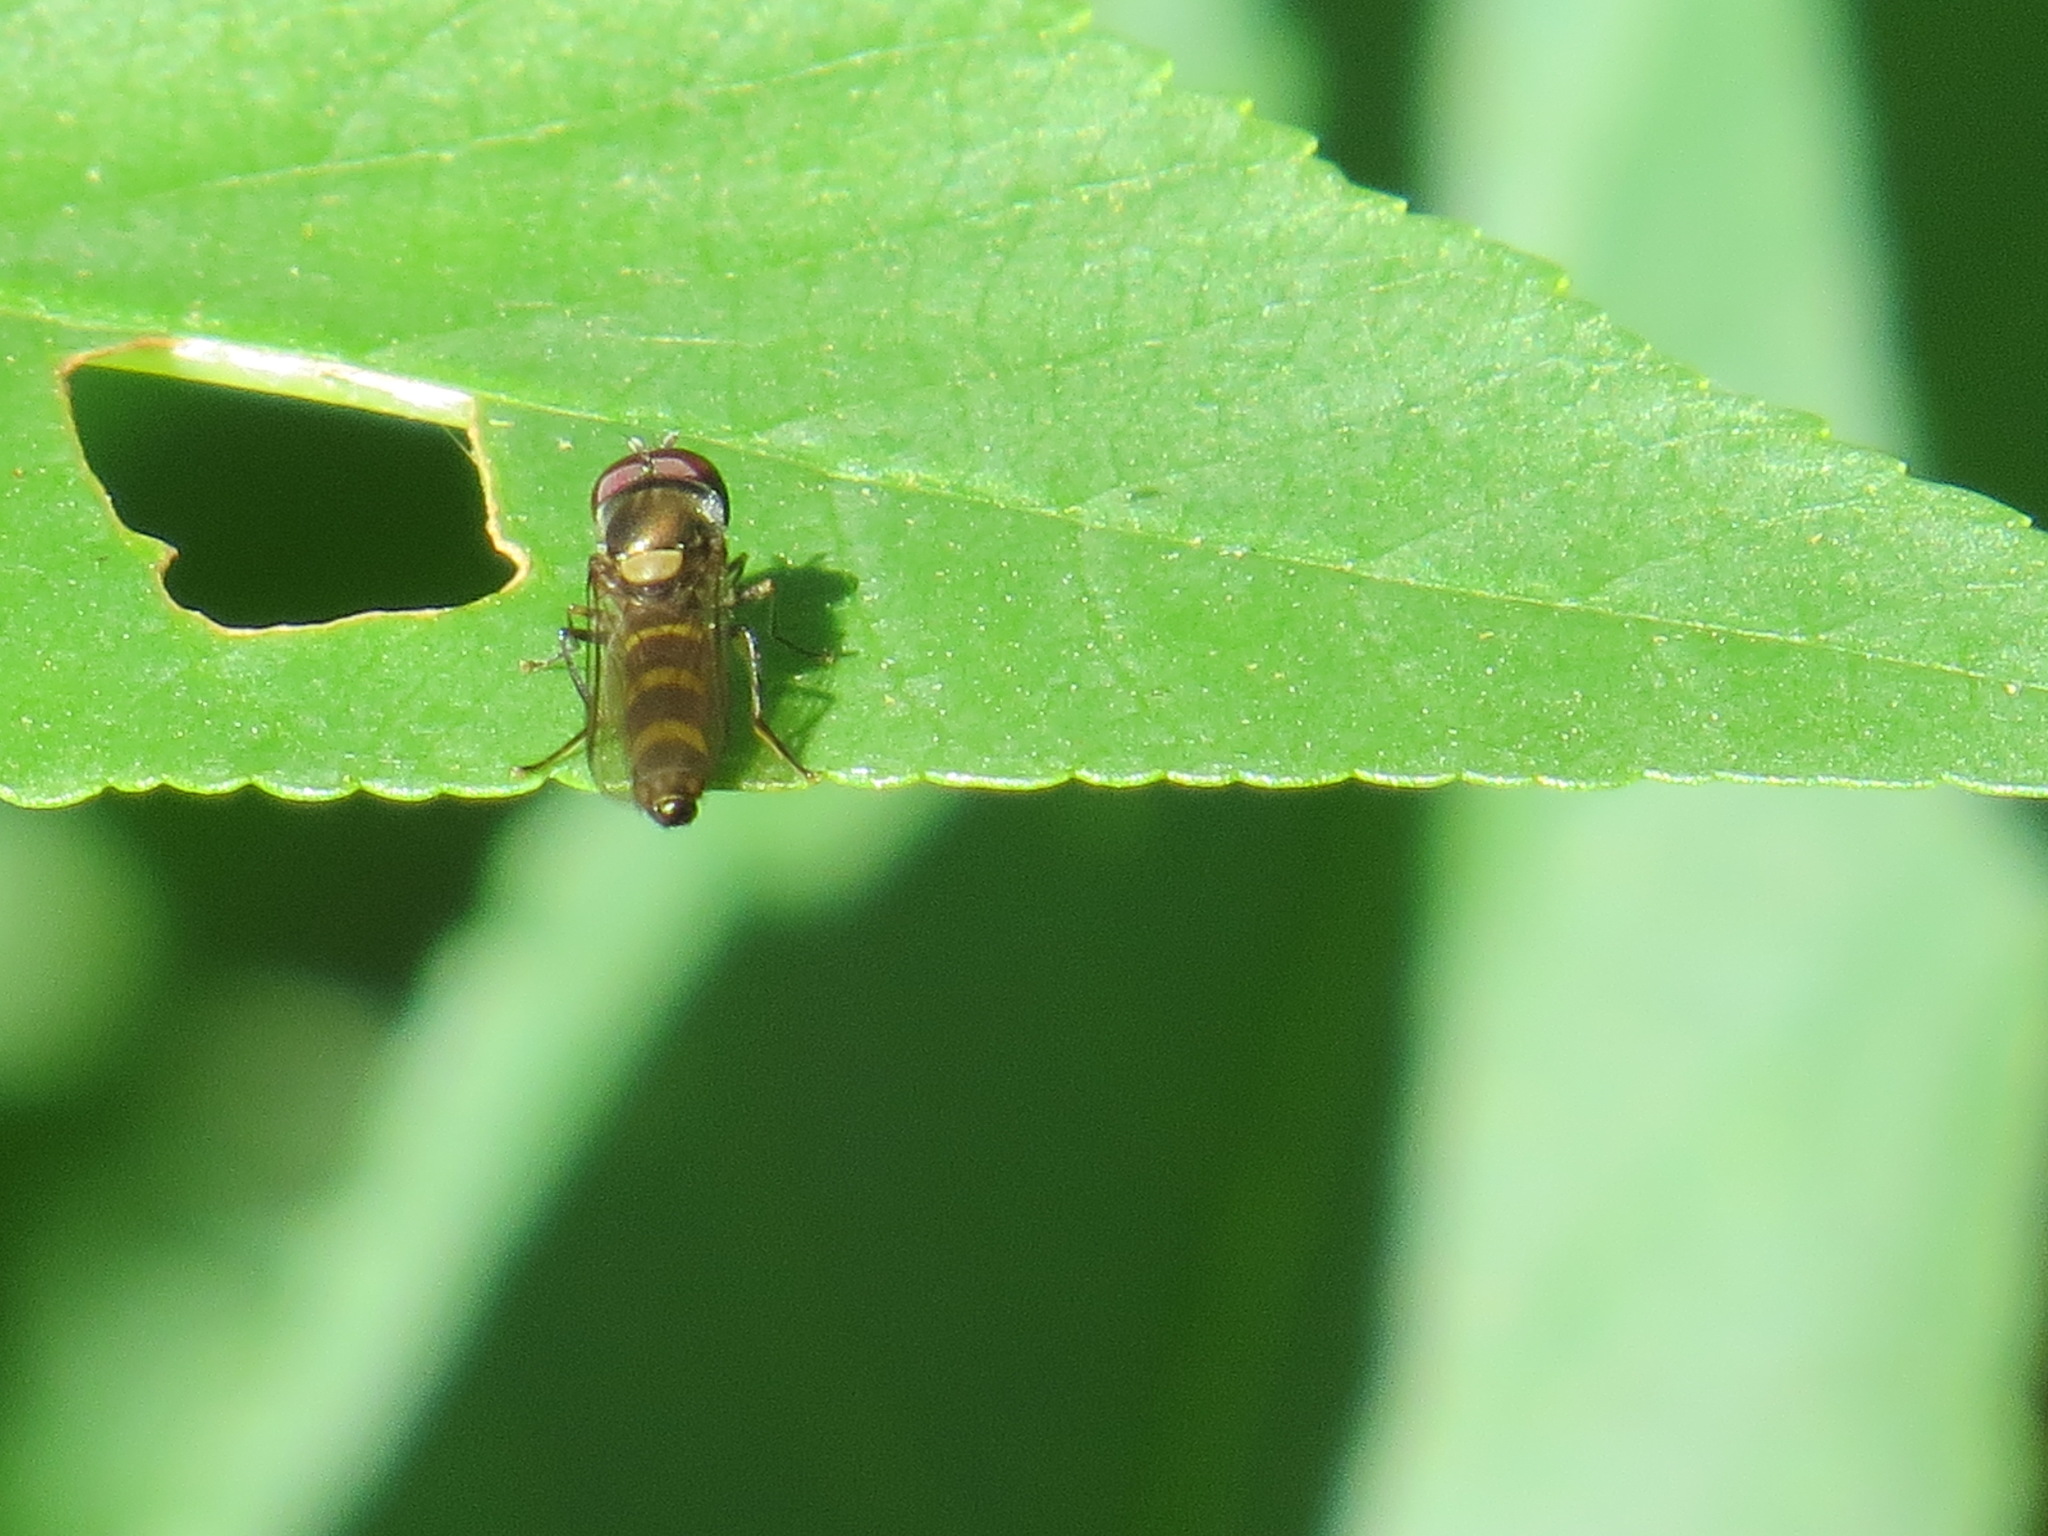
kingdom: Animalia
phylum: Arthropoda
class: Insecta
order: Diptera
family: Syrphidae
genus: Fazia
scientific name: Fazia micrura
